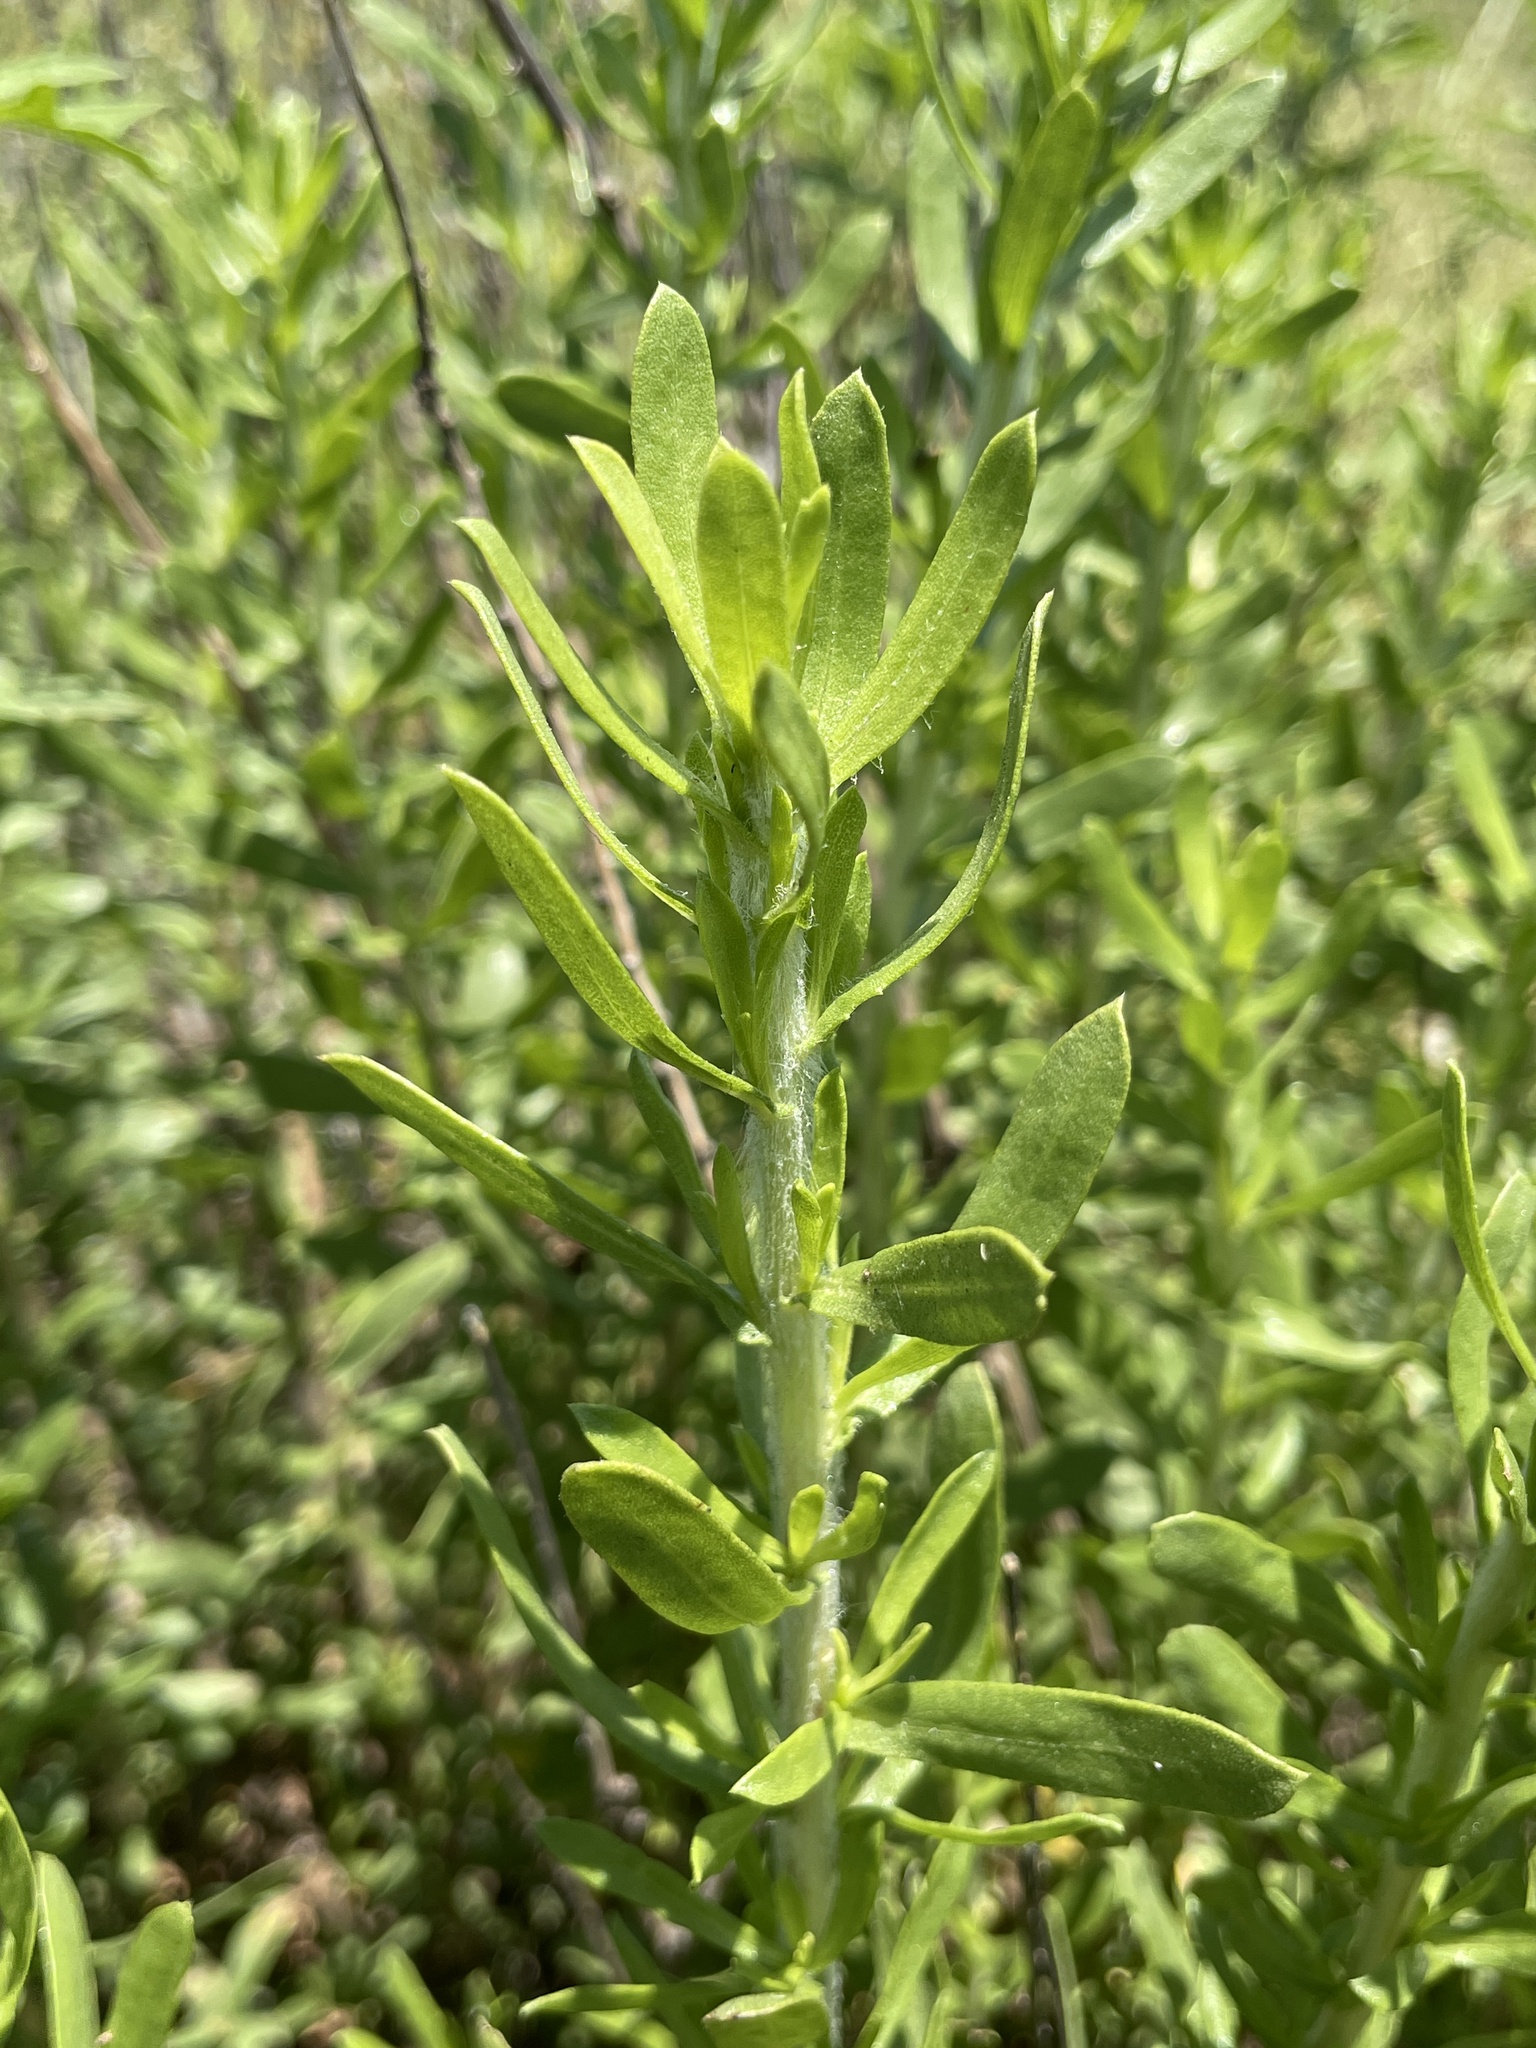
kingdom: Plantae
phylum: Tracheophyta
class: Magnoliopsida
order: Asterales
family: Asteraceae
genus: Isocoma
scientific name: Isocoma menziesii
